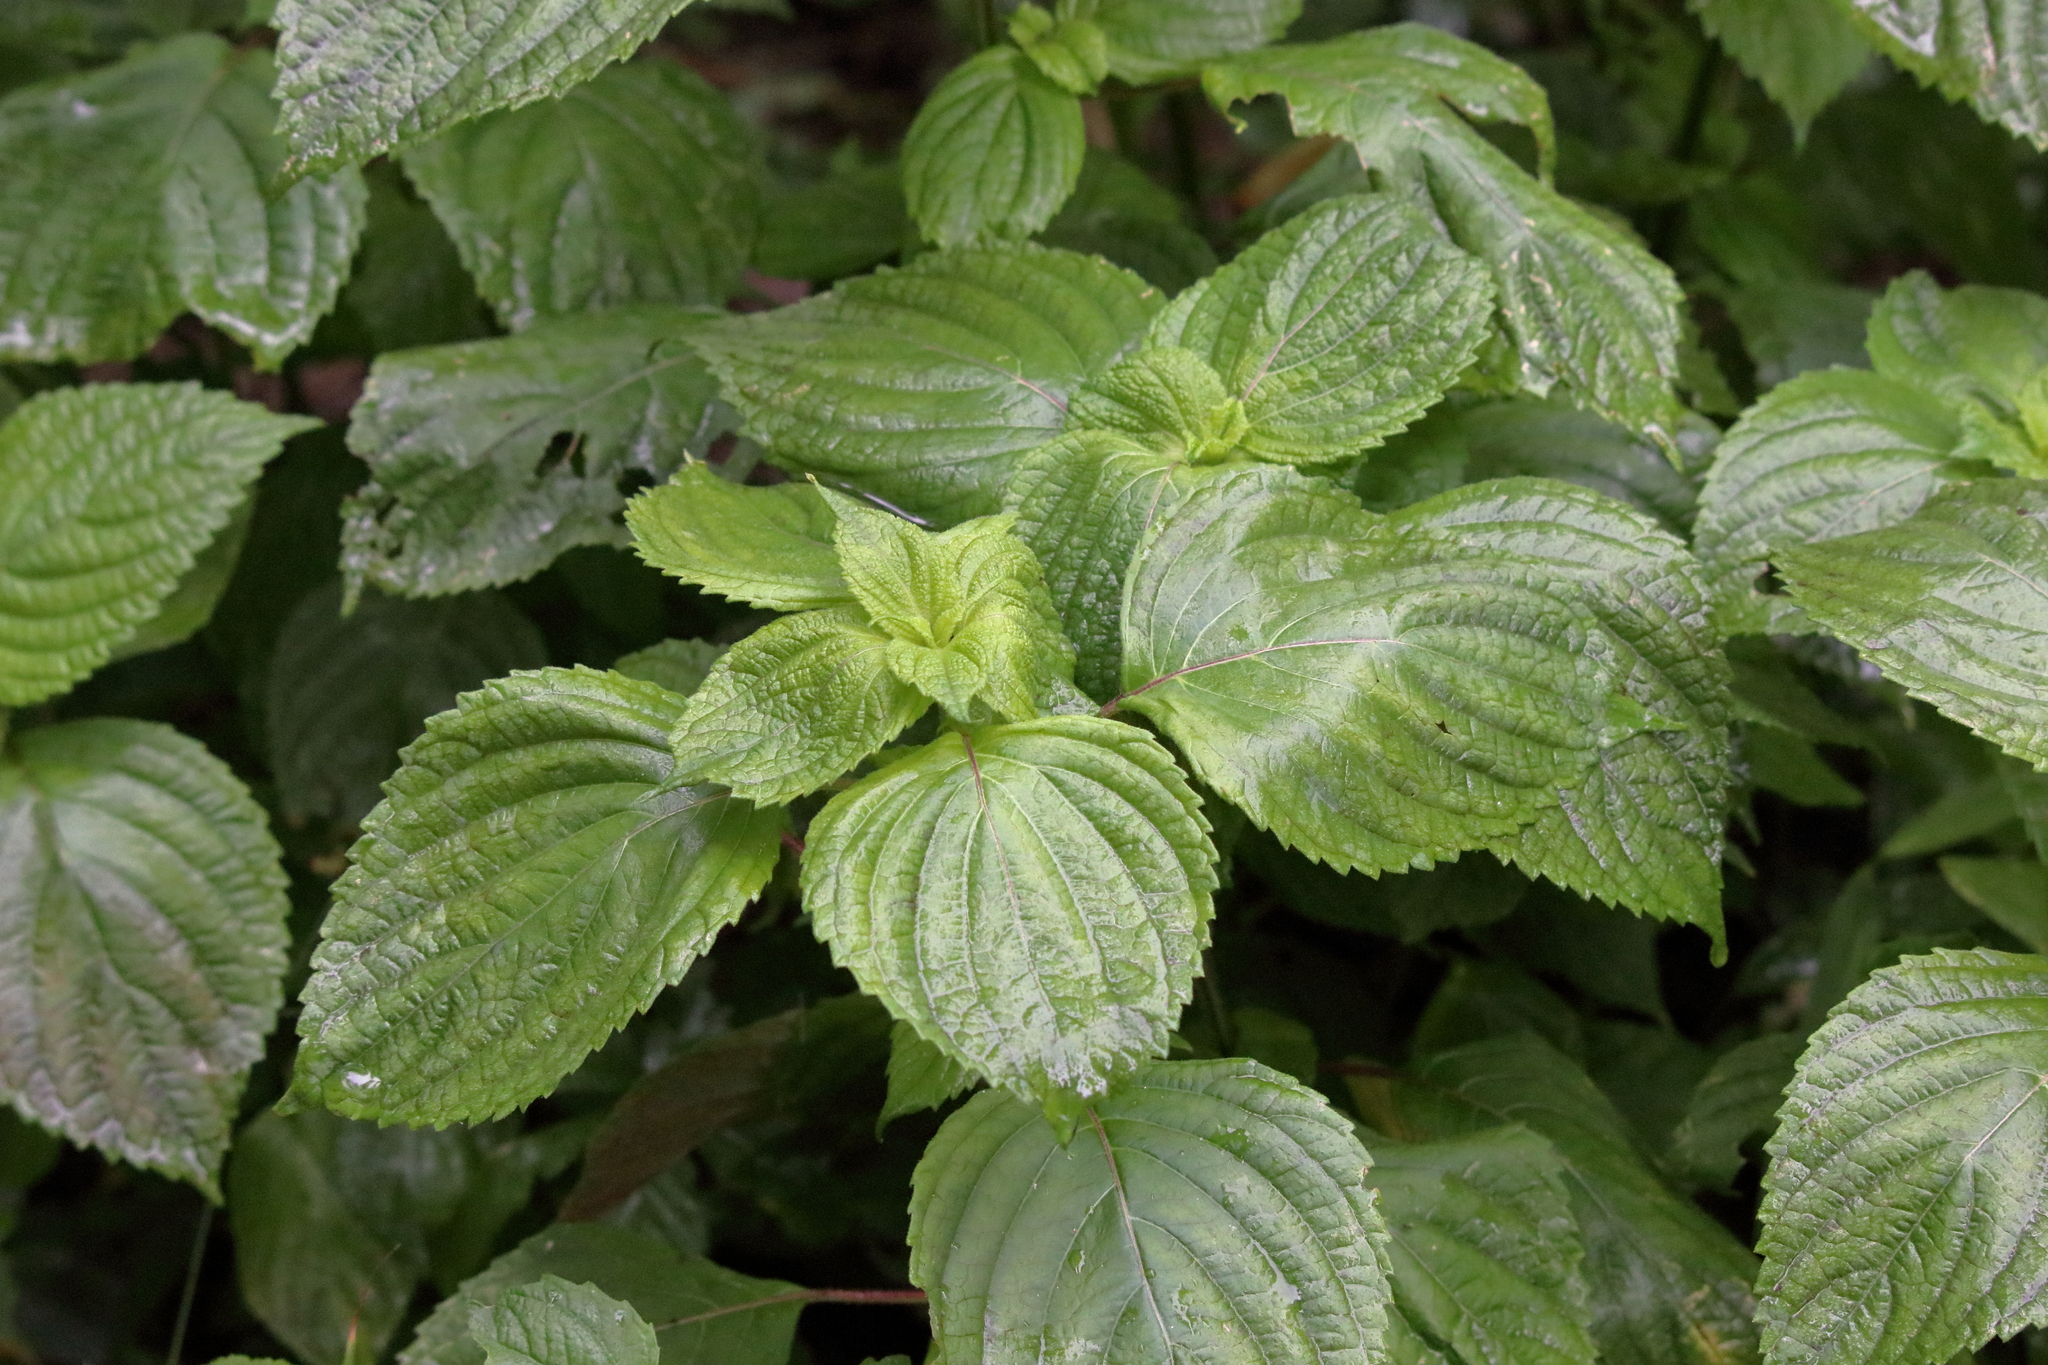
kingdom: Plantae
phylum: Tracheophyta
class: Magnoliopsida
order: Lamiales
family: Lamiaceae
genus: Perilla
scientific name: Perilla frutescens
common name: Perilla
